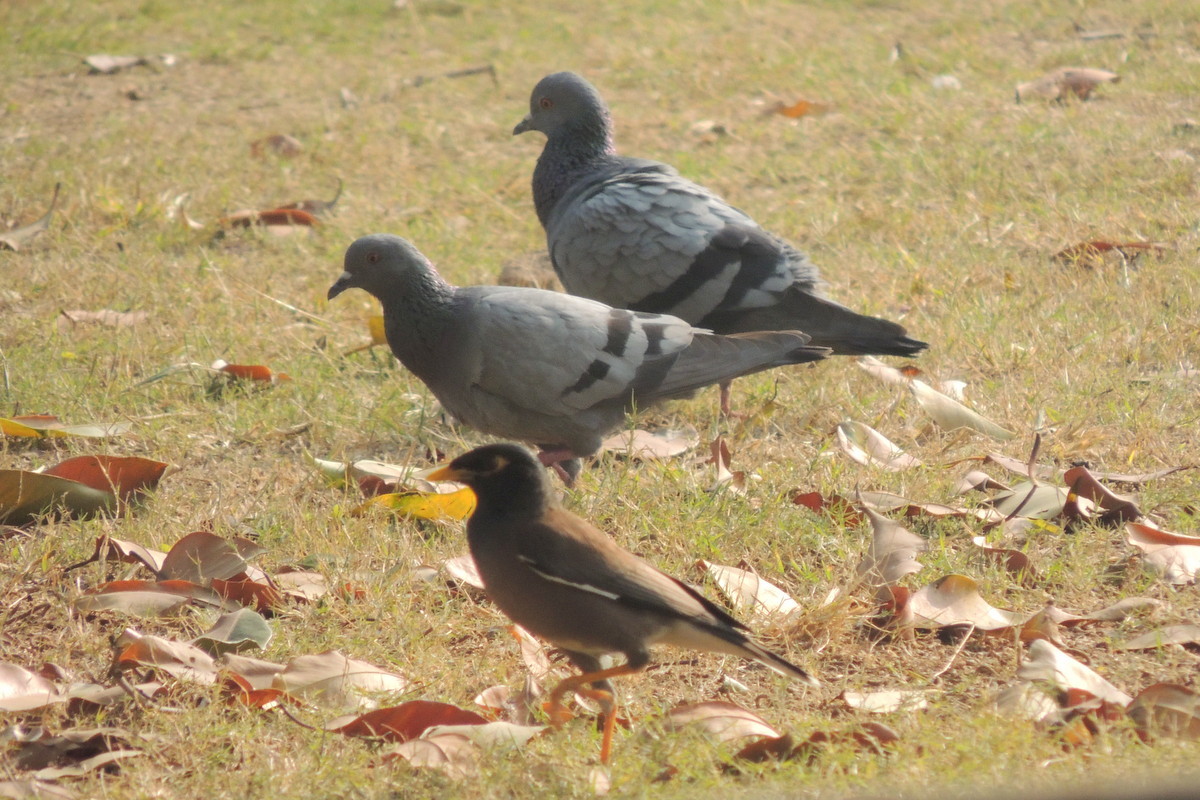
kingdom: Animalia
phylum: Chordata
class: Aves
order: Passeriformes
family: Sturnidae
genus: Acridotheres
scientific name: Acridotheres tristis
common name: Common myna
